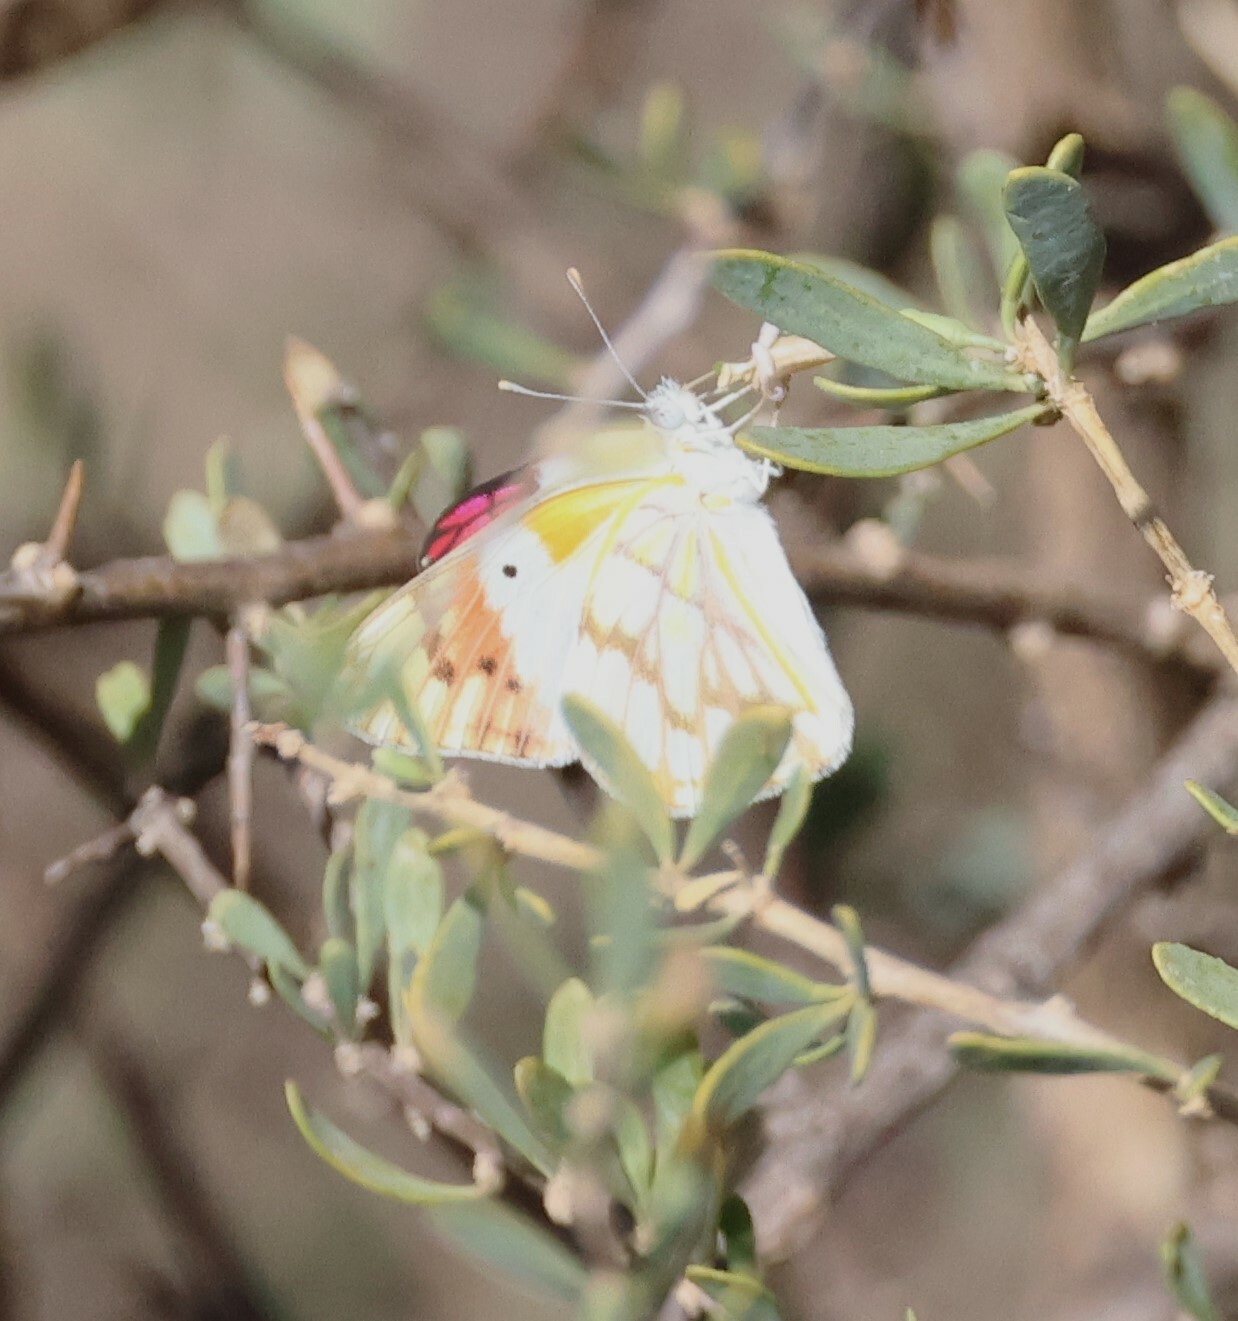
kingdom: Animalia
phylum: Arthropoda
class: Insecta
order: Lepidoptera
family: Pieridae
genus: Colotis
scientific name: Colotis celimene
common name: Lilac tip
